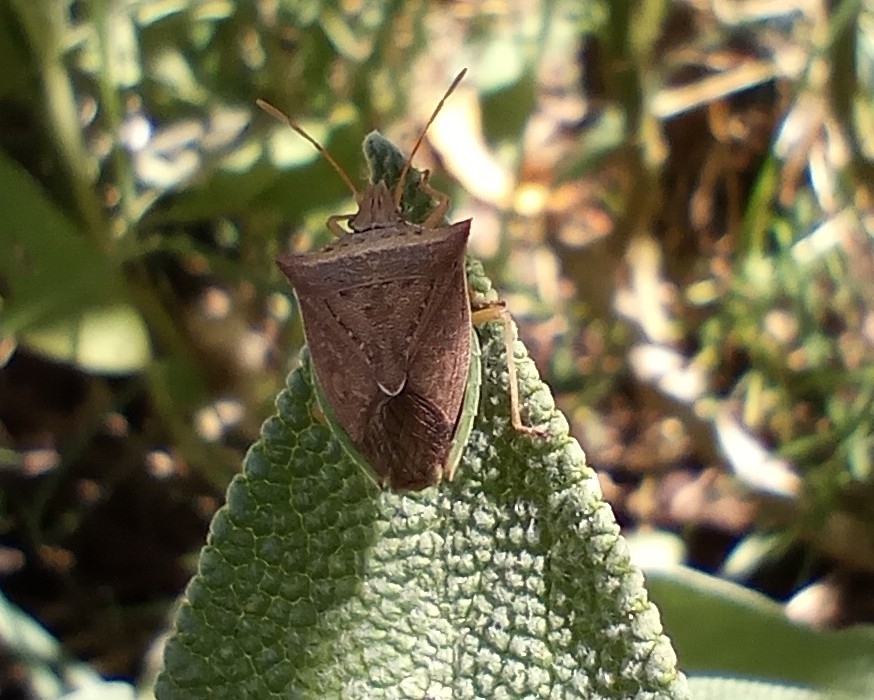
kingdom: Animalia
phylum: Arthropoda
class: Insecta
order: Hemiptera
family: Pentatomidae
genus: Diceraeus
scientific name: Diceraeus furcatus
